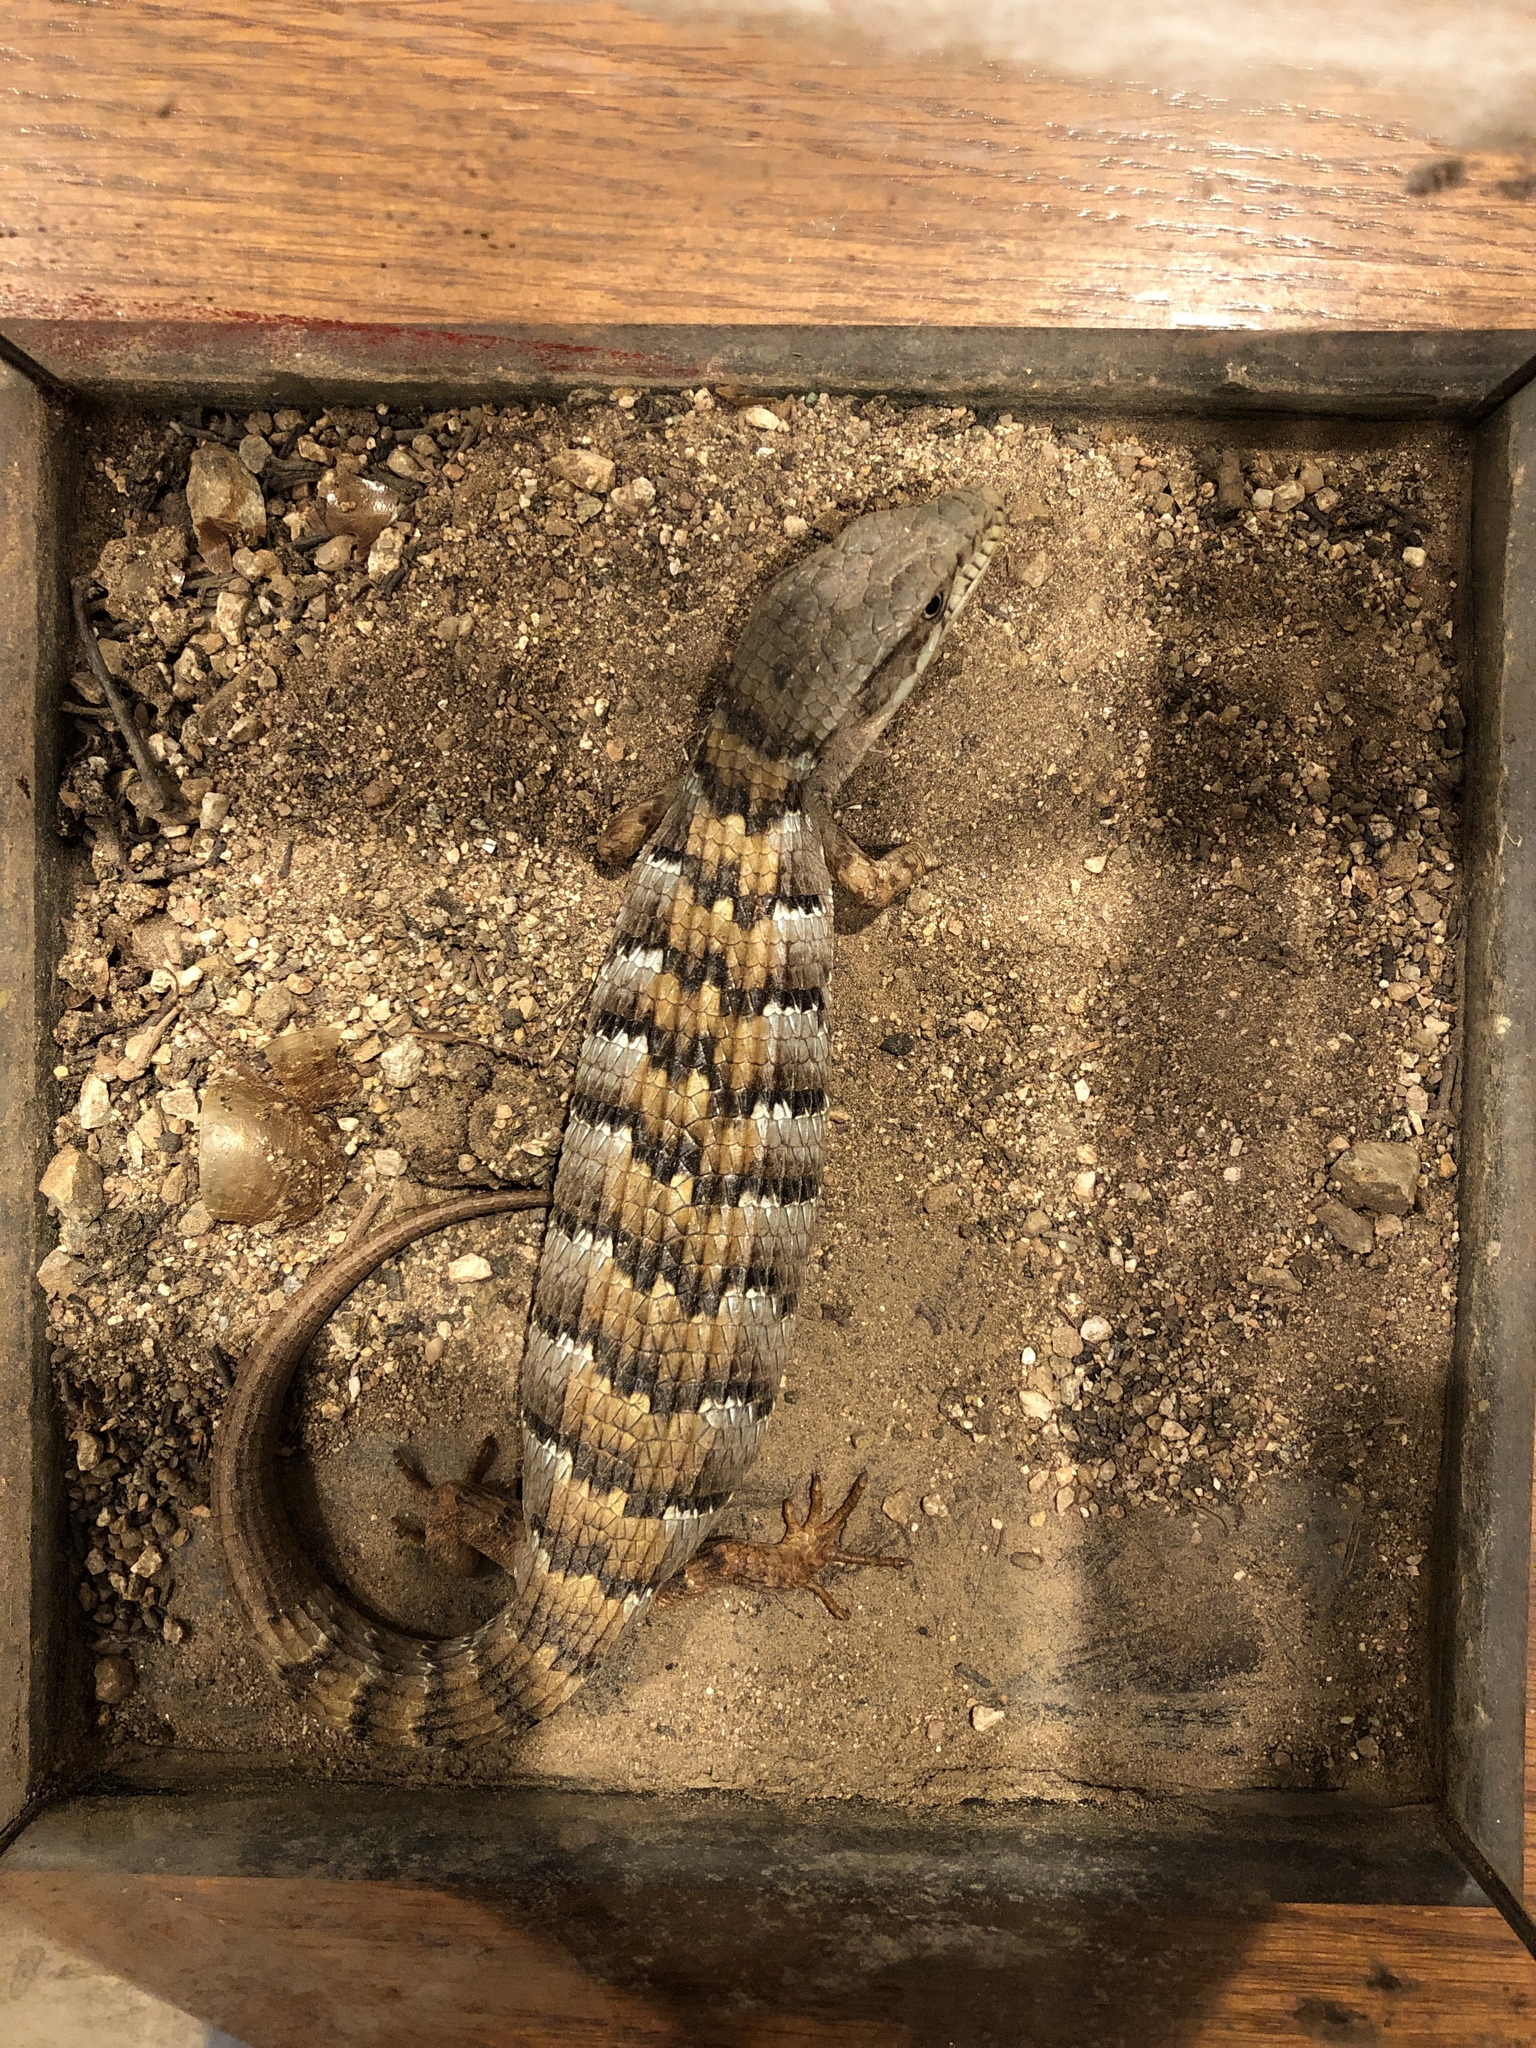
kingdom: Animalia
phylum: Chordata
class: Squamata
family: Anguidae
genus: Elgaria
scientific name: Elgaria multicarinata
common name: Southern alligator lizard
